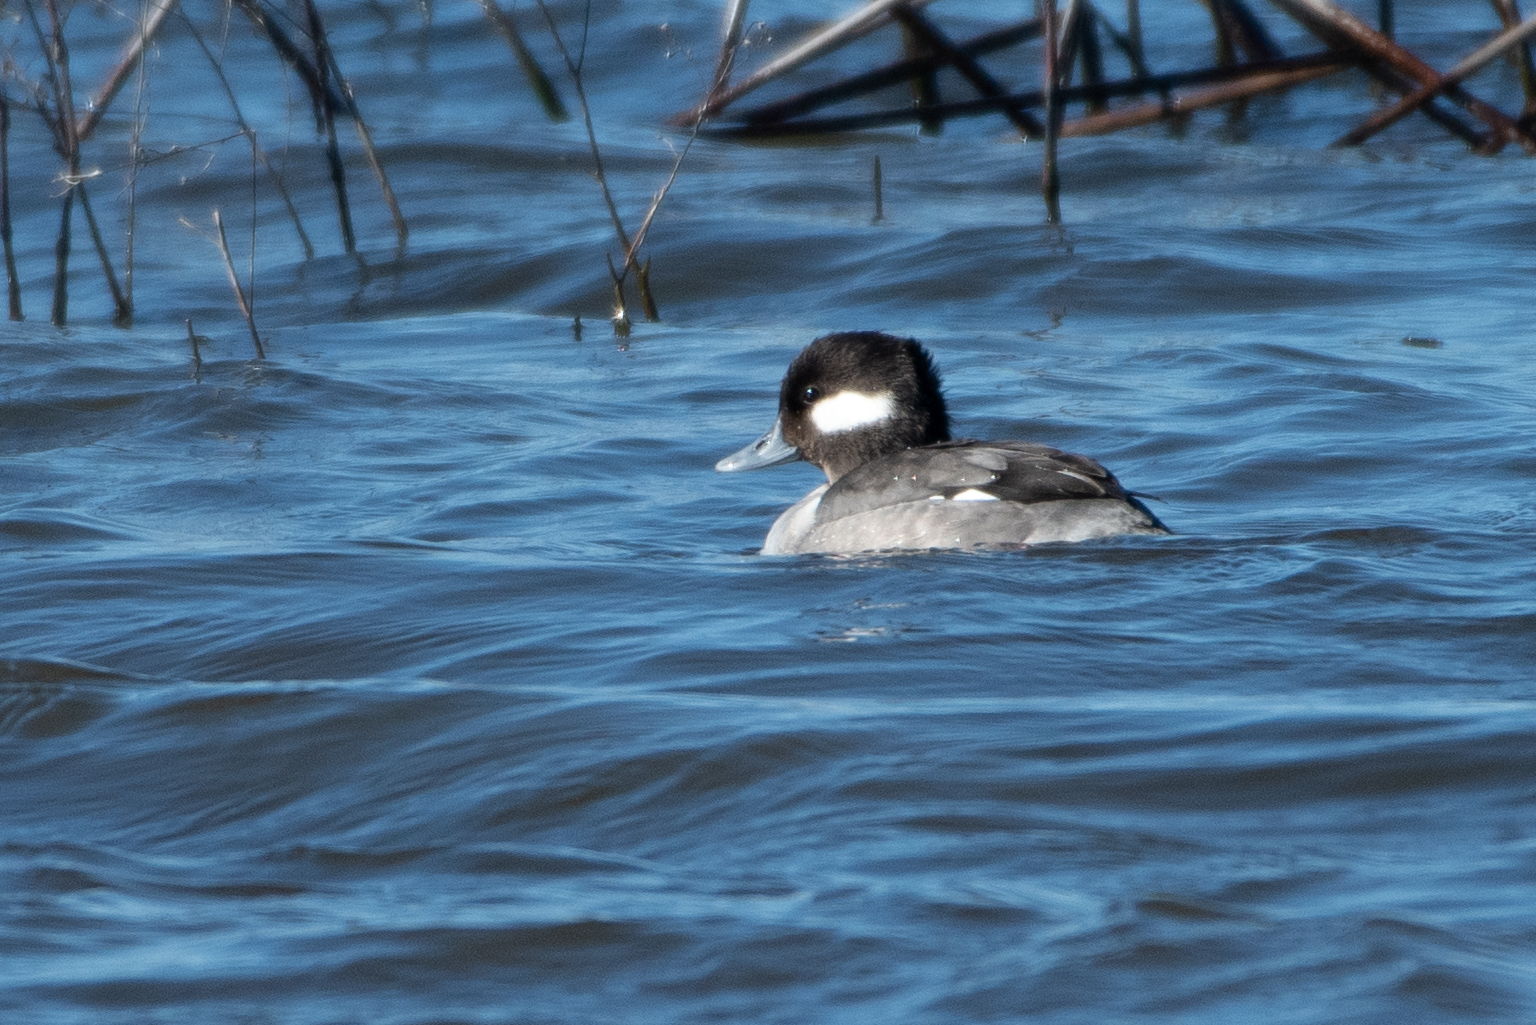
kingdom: Animalia
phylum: Chordata
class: Aves
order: Anseriformes
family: Anatidae
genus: Bucephala
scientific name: Bucephala albeola
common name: Bufflehead
